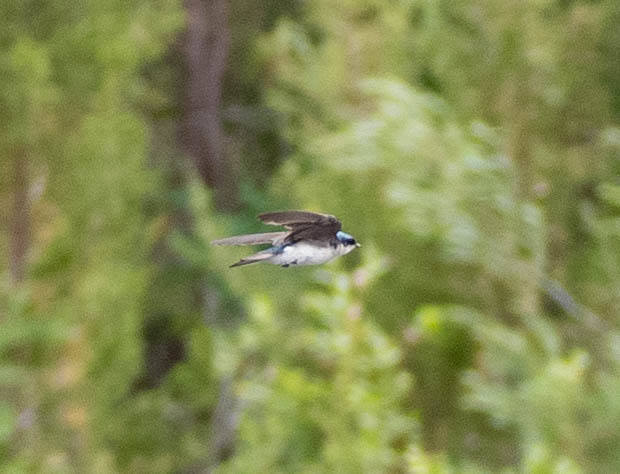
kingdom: Animalia
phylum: Chordata
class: Aves
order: Passeriformes
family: Hirundinidae
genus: Tachycineta
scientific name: Tachycineta bicolor
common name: Tree swallow
